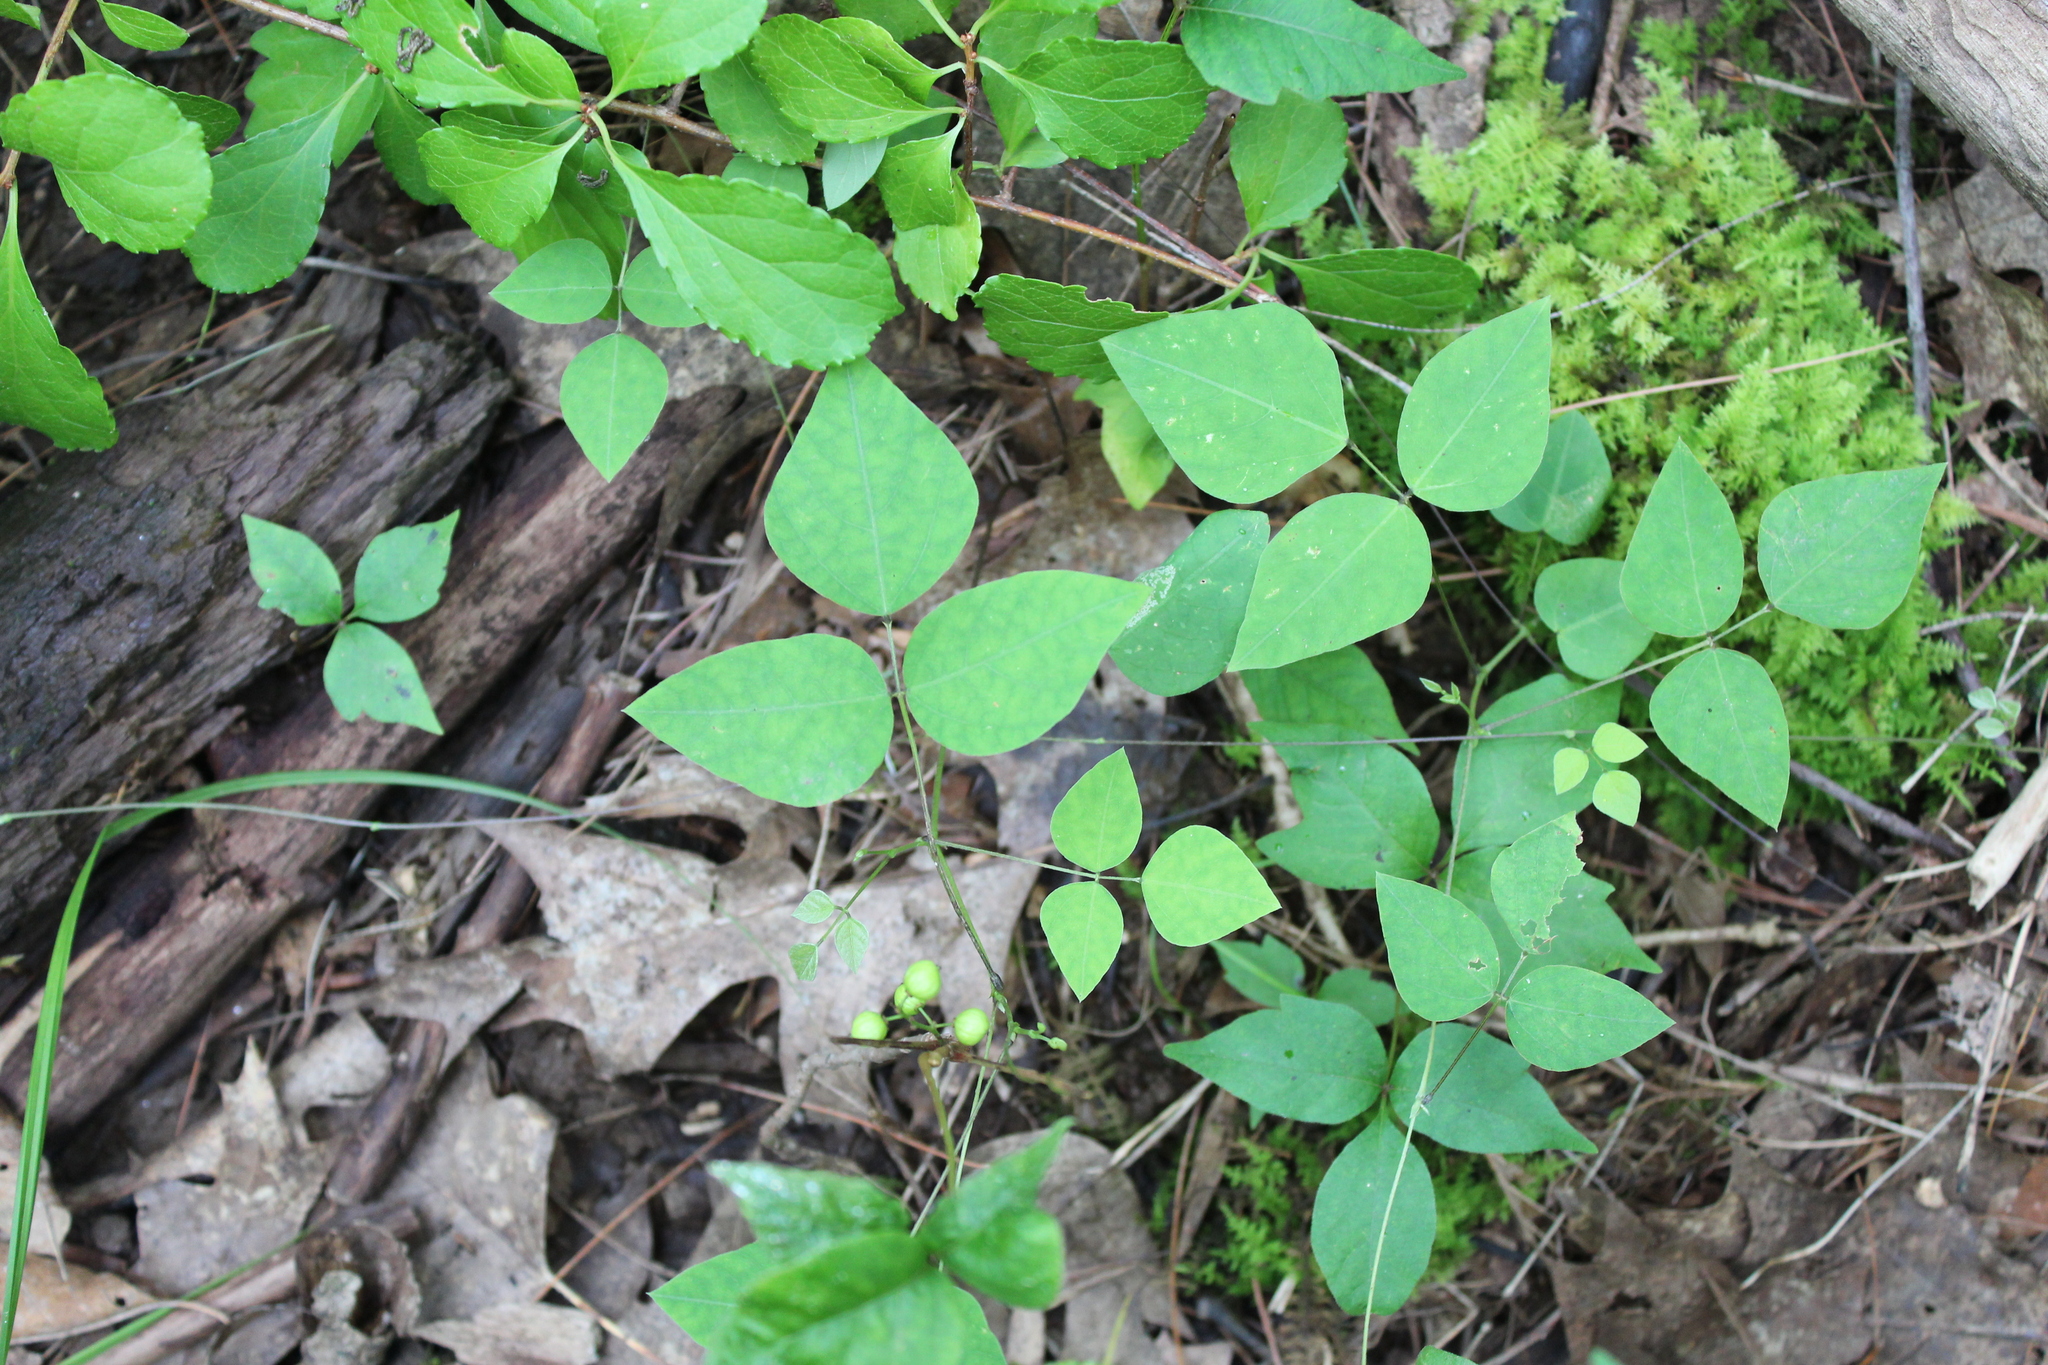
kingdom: Plantae
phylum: Tracheophyta
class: Magnoliopsida
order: Fabales
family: Fabaceae
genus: Amphicarpaea
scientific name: Amphicarpaea bracteata
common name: American hog peanut
